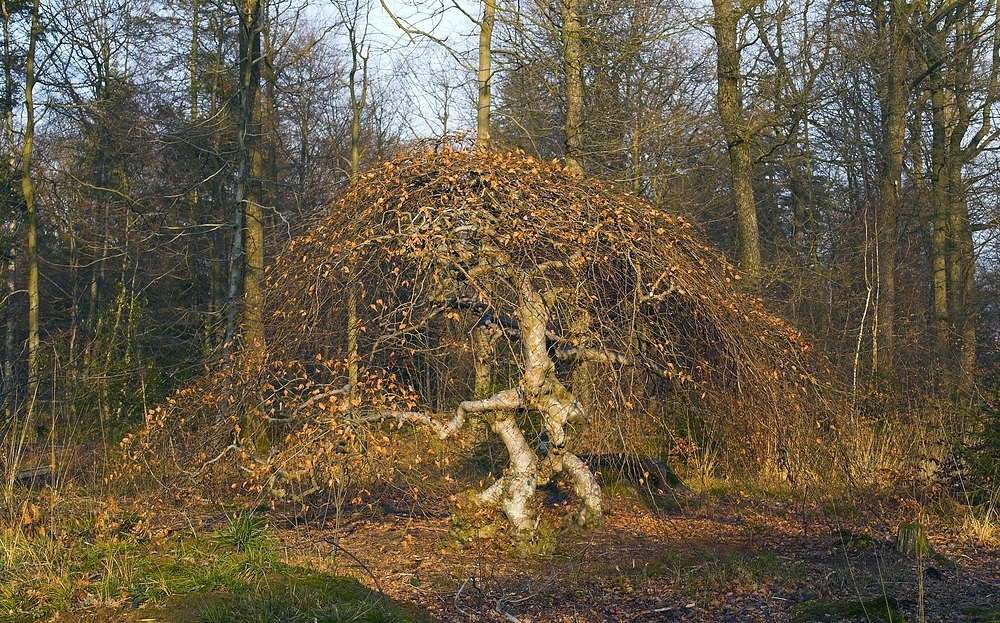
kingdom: Plantae
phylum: Tracheophyta
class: Magnoliopsida
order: Fagales
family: Fagaceae
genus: Fagus
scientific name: Fagus sylvatica
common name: Beech
